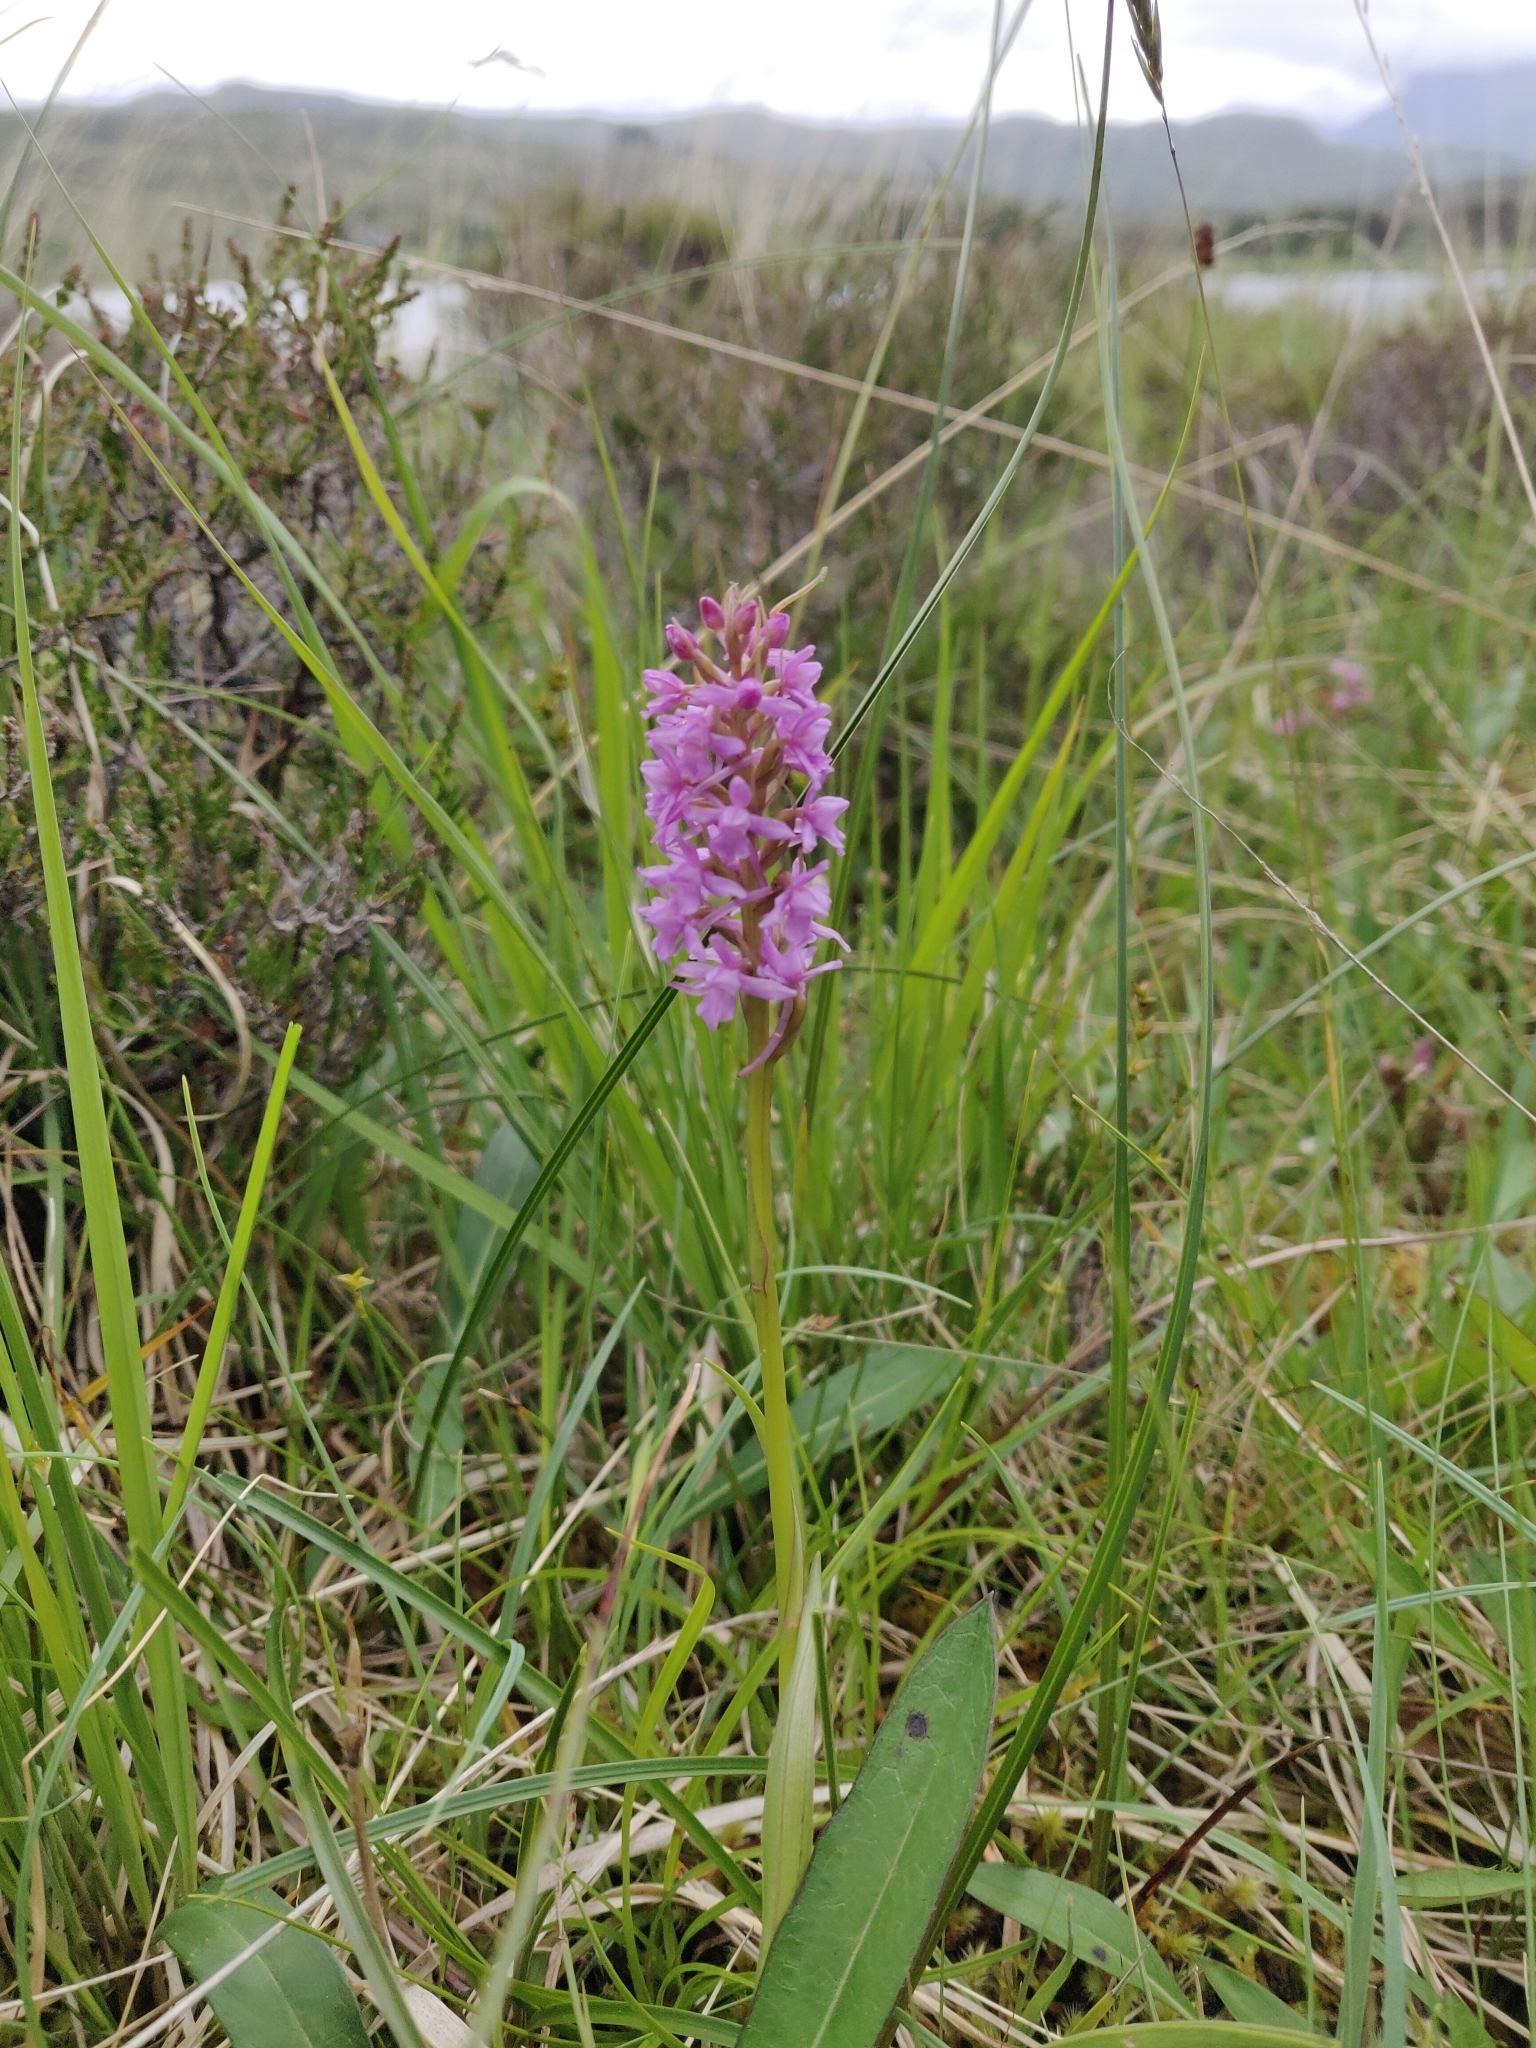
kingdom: Plantae
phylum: Tracheophyta
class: Liliopsida
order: Asparagales
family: Orchidaceae
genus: Gymnadenia
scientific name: Gymnadenia borealis
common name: Heath fragrant orchid
